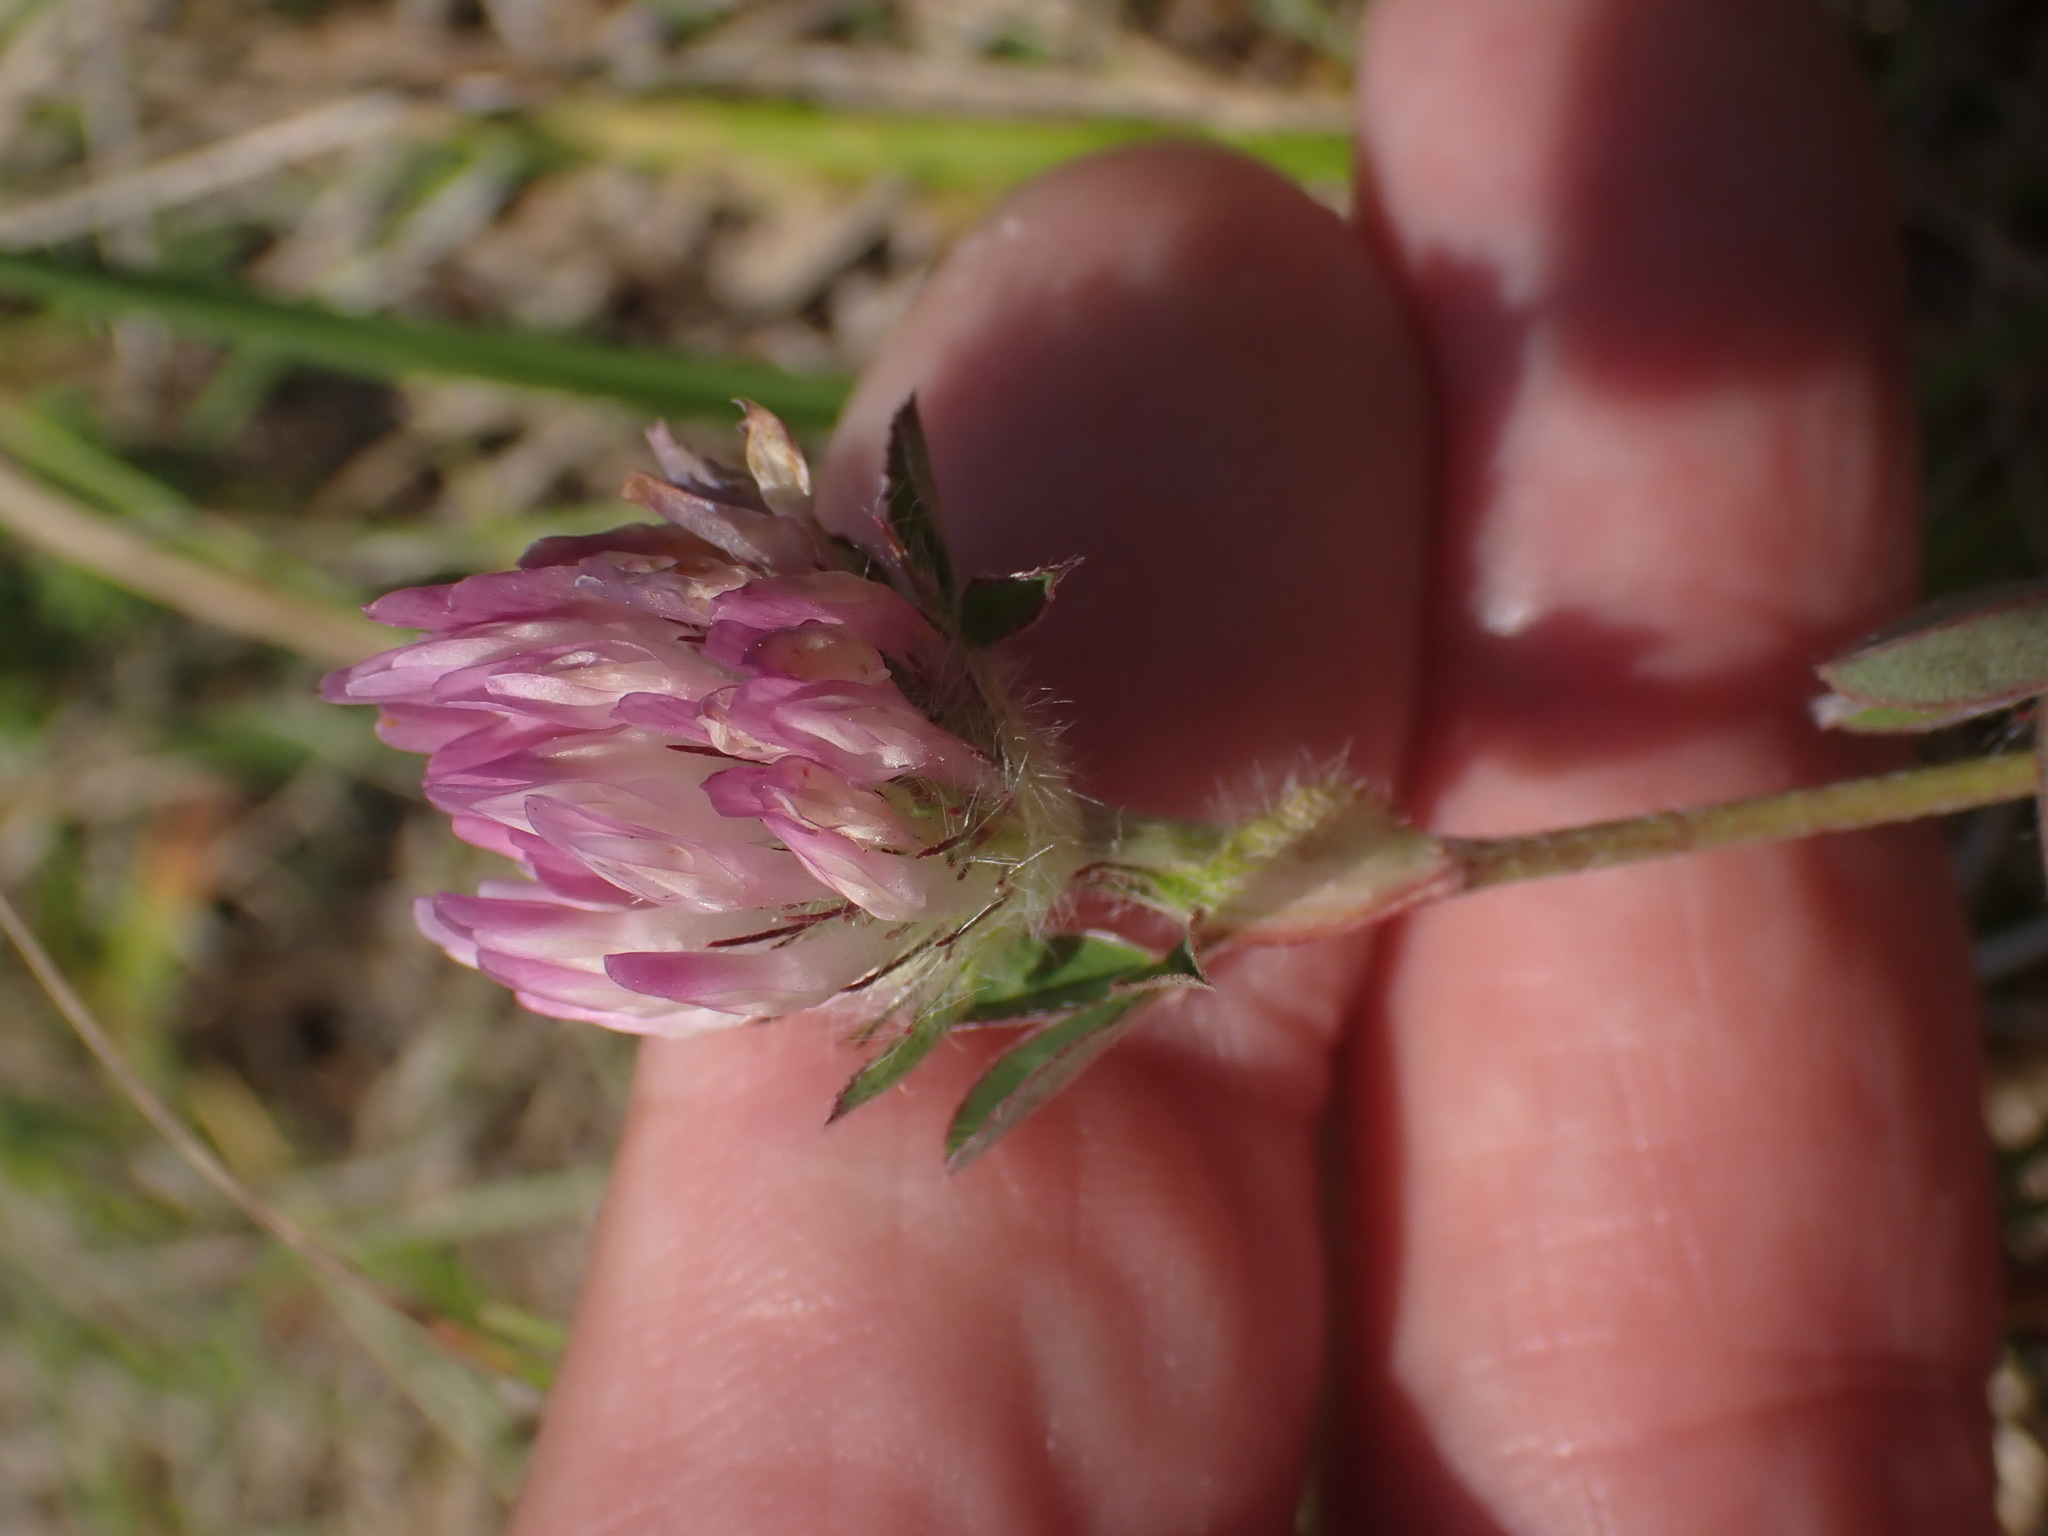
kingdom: Plantae
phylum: Tracheophyta
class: Magnoliopsida
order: Fabales
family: Fabaceae
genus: Trifolium
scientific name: Trifolium pratense
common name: Red clover
